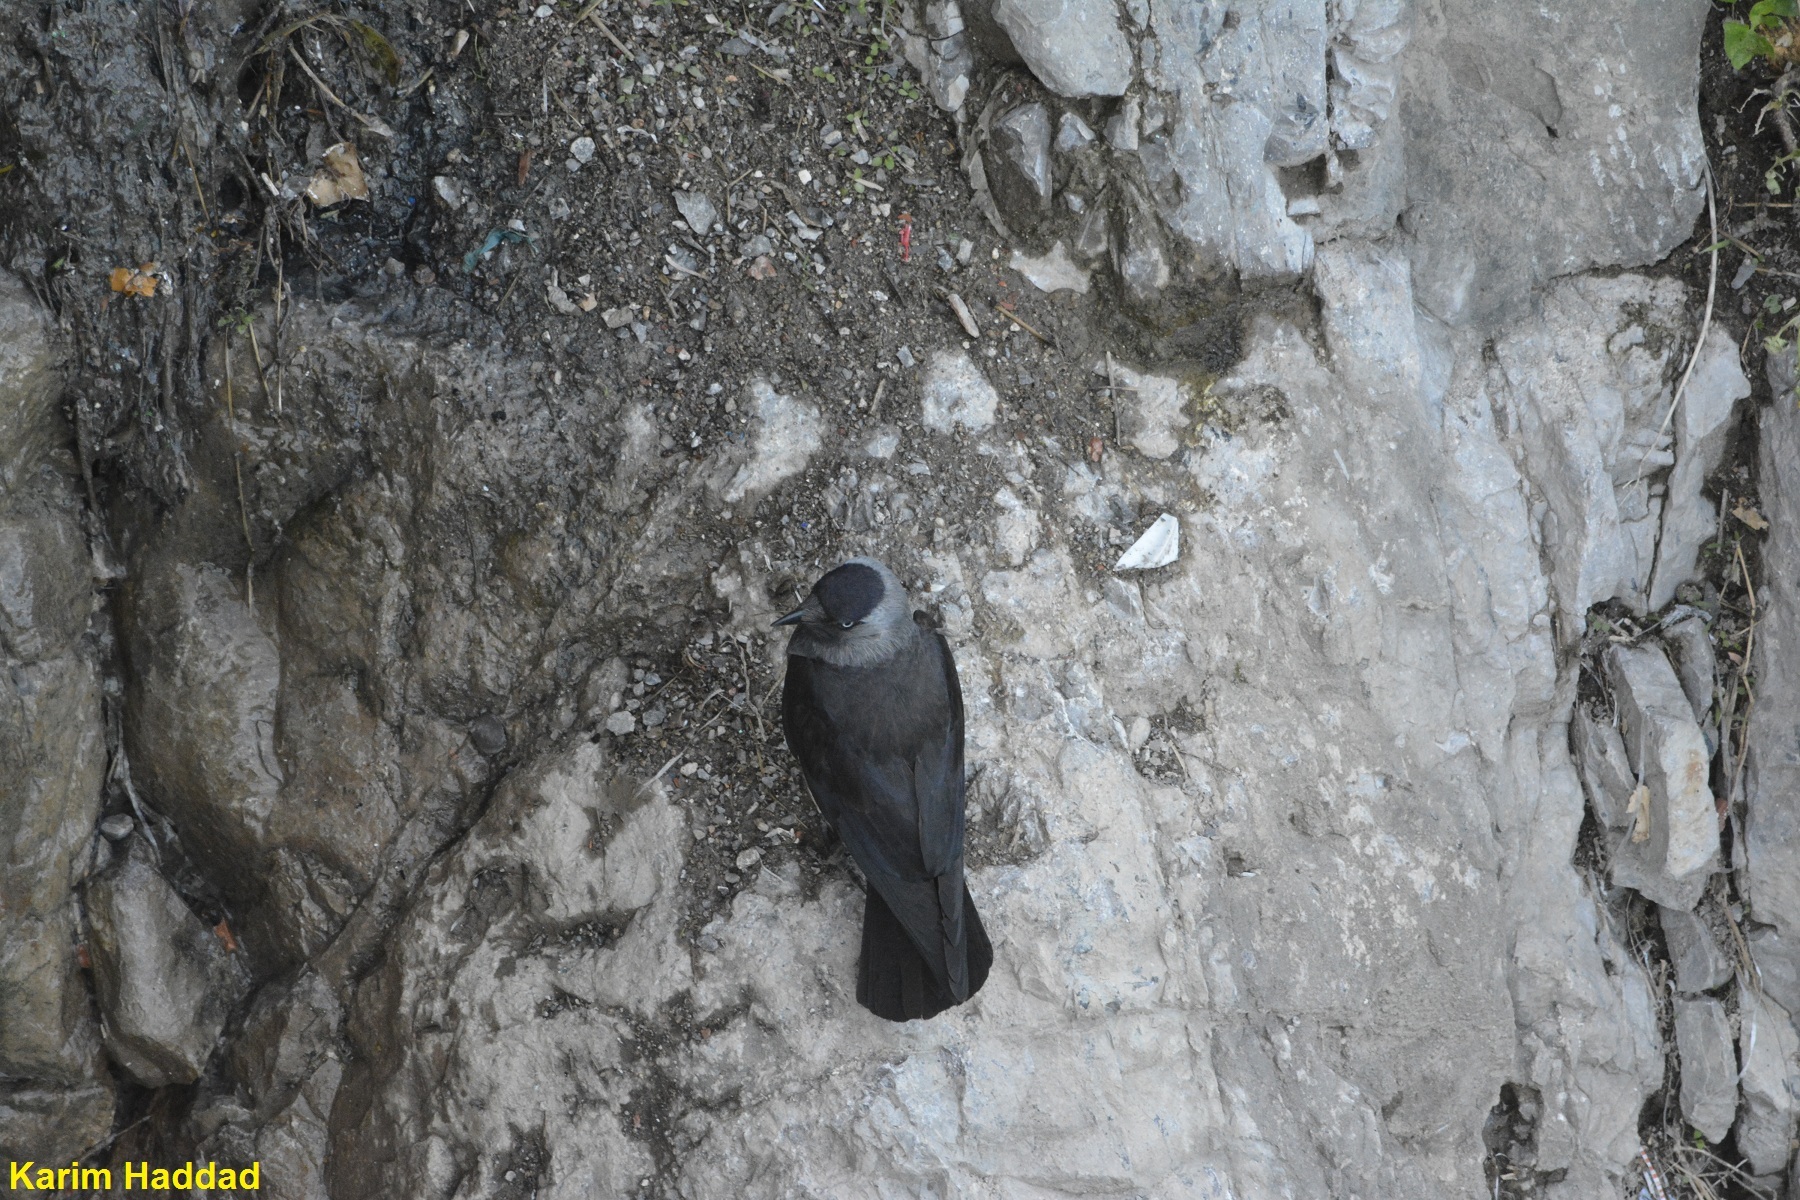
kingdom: Animalia
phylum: Chordata
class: Aves
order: Passeriformes
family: Corvidae
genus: Coloeus
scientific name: Coloeus monedula
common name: Western jackdaw
